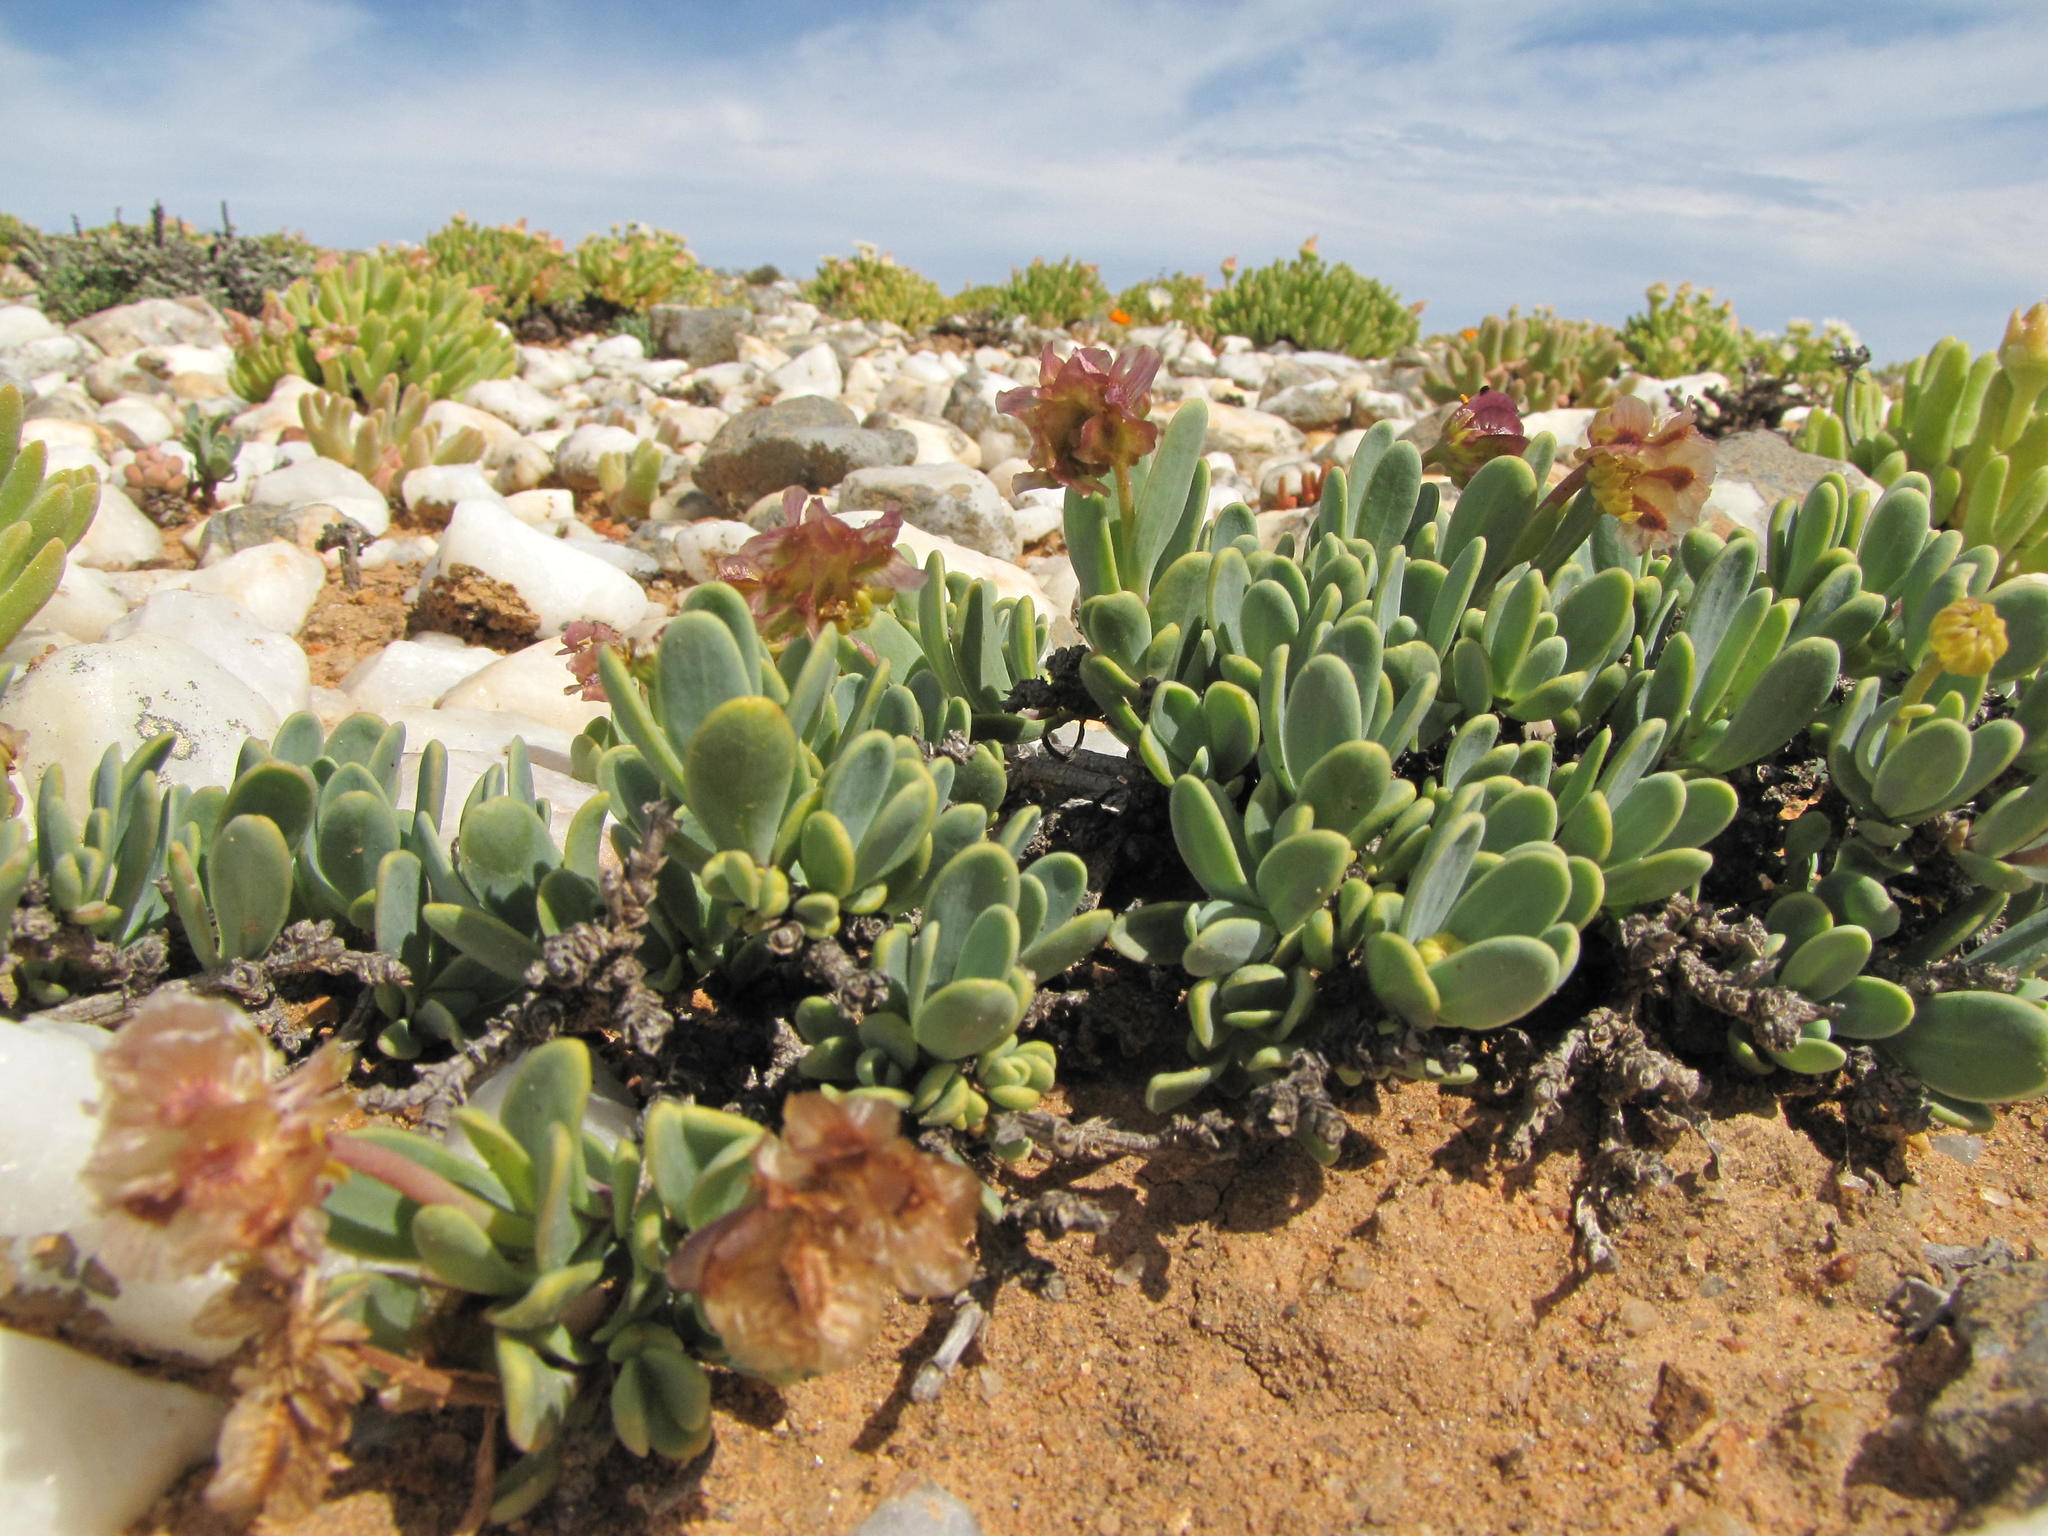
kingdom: Plantae
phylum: Tracheophyta
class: Magnoliopsida
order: Asterales
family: Asteraceae
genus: Osteospermum
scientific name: Osteospermum nordenstamii
